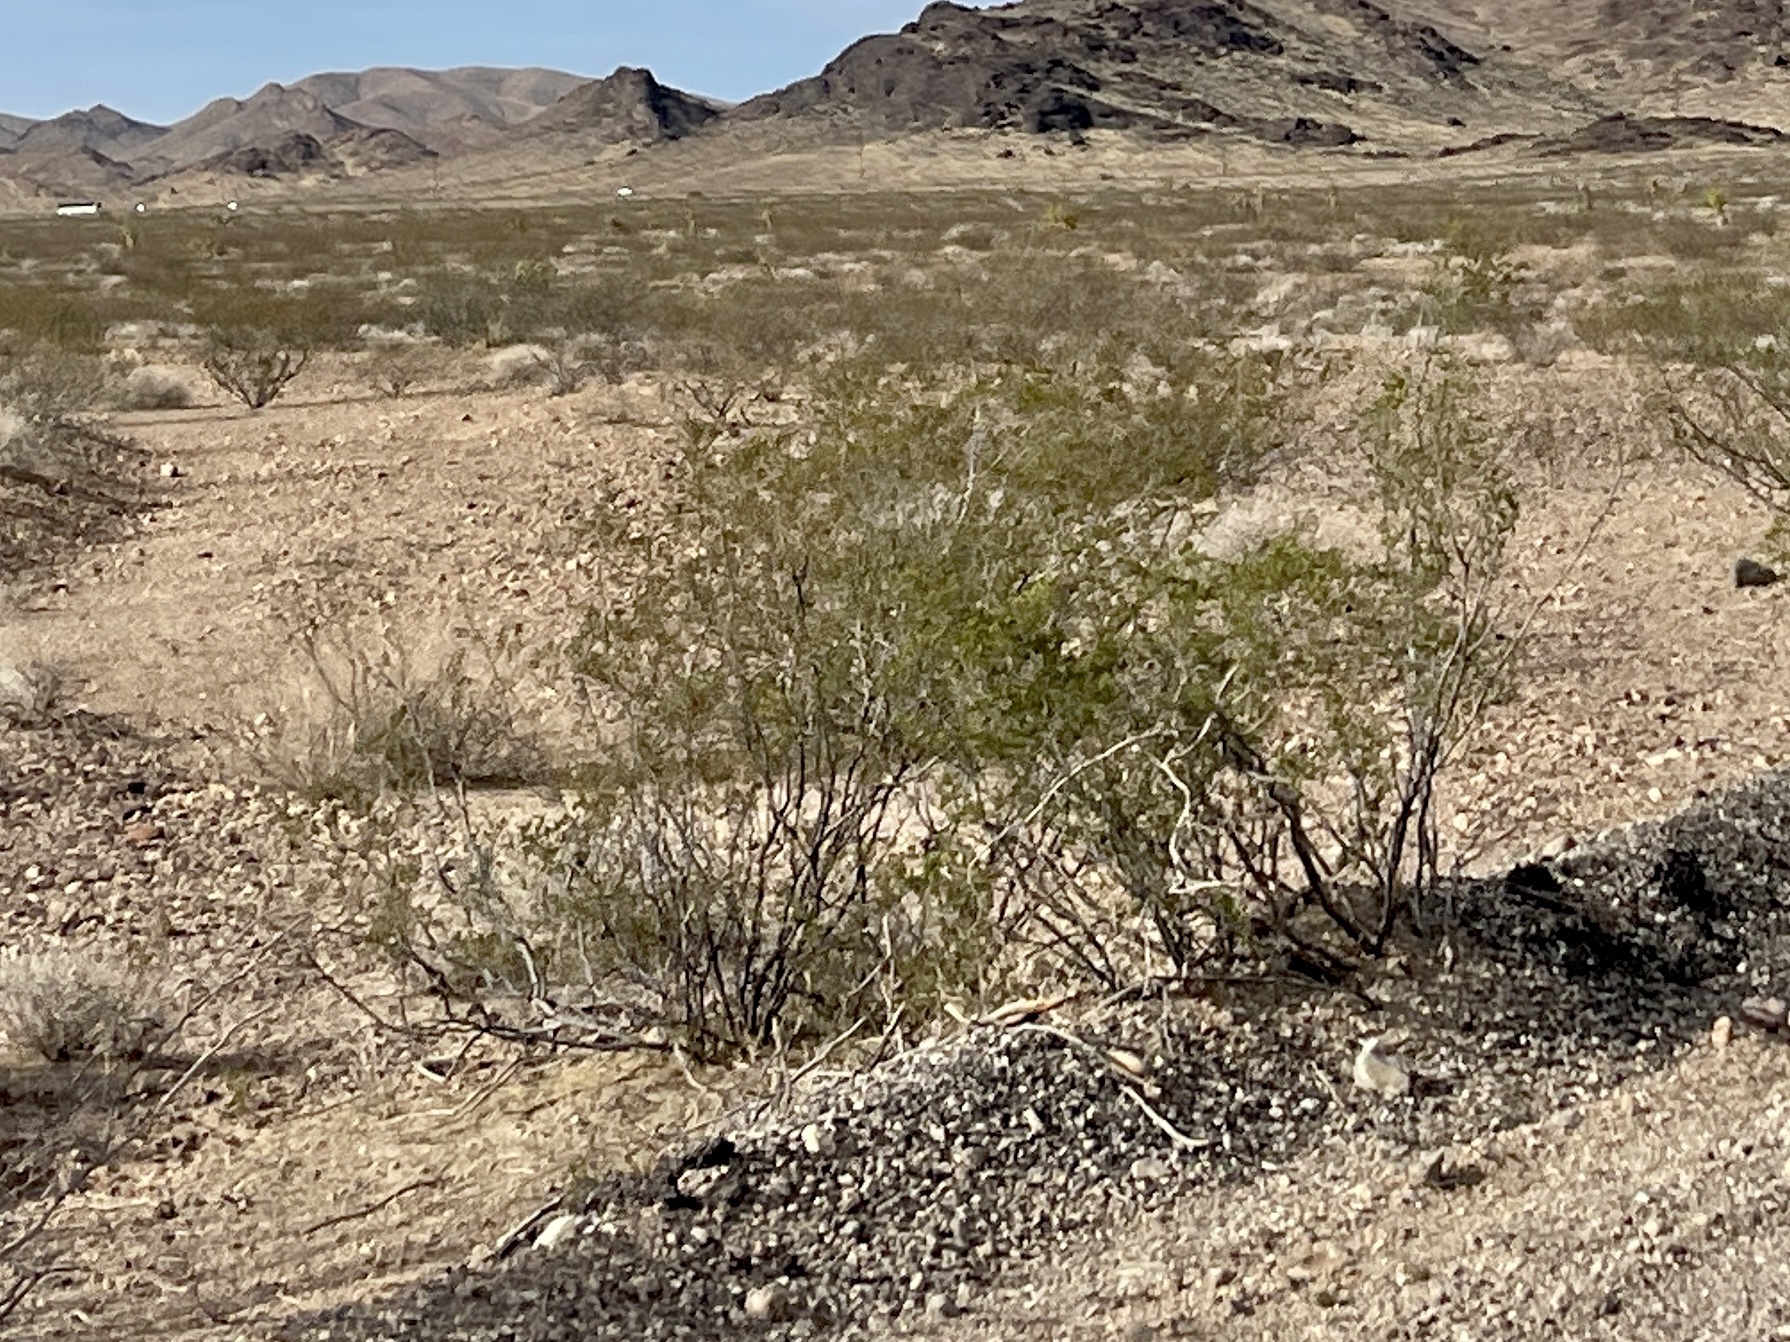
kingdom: Plantae
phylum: Tracheophyta
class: Magnoliopsida
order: Zygophyllales
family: Zygophyllaceae
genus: Larrea
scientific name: Larrea tridentata
